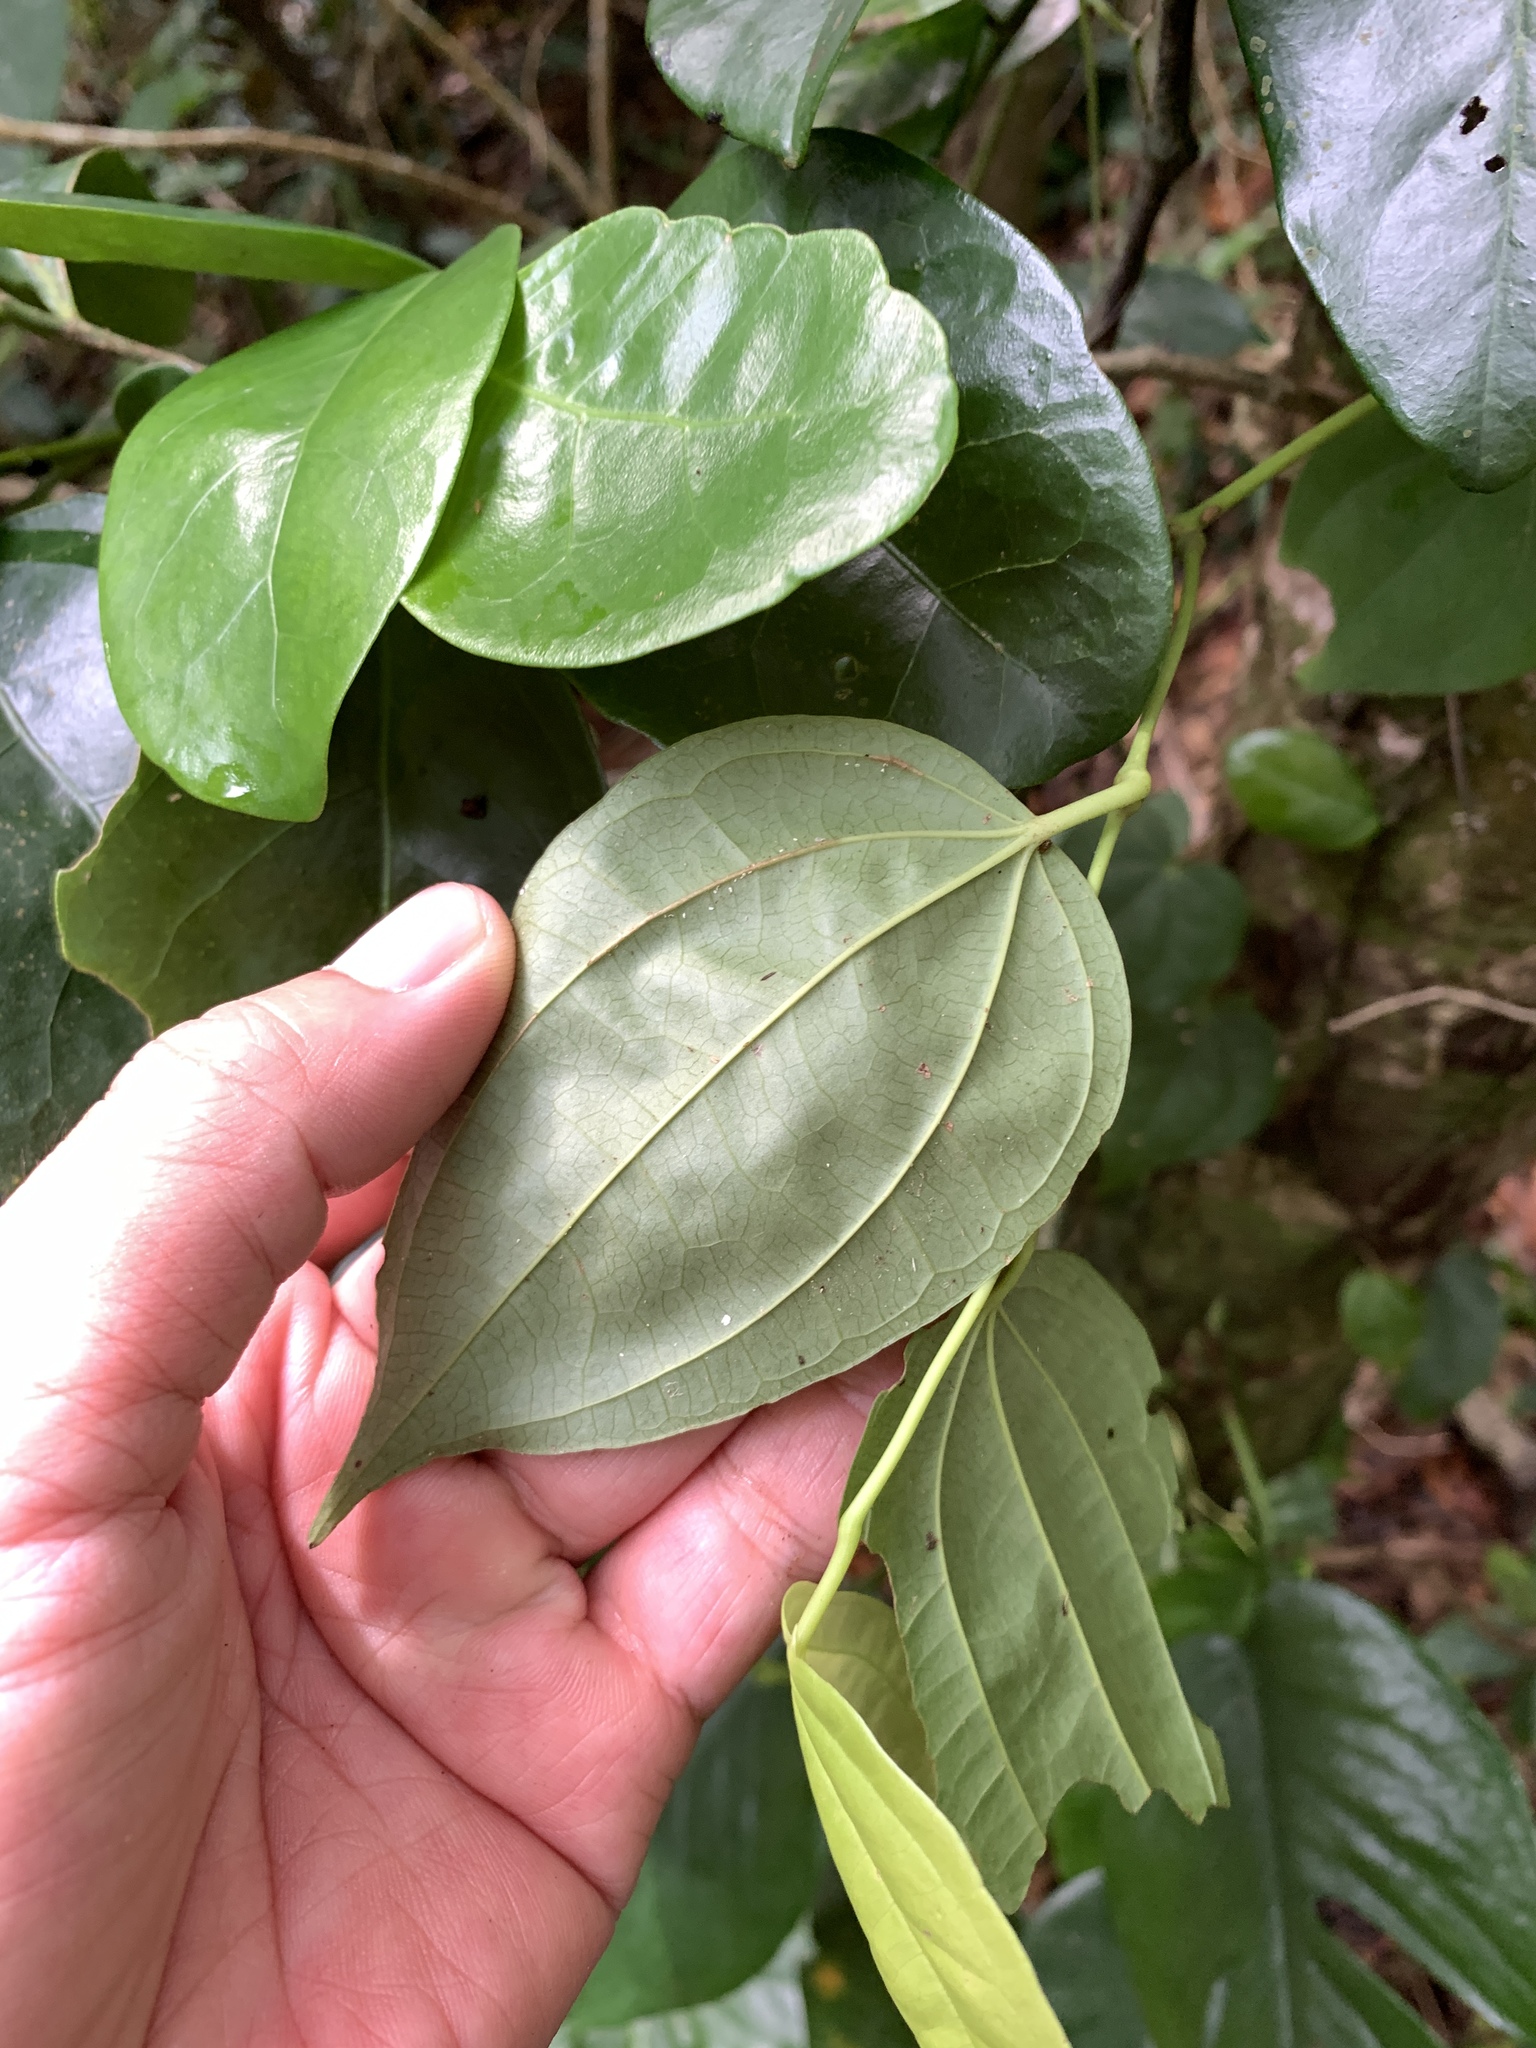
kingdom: Plantae
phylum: Tracheophyta
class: Magnoliopsida
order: Piperales
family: Piperaceae
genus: Piper
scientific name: Piper
